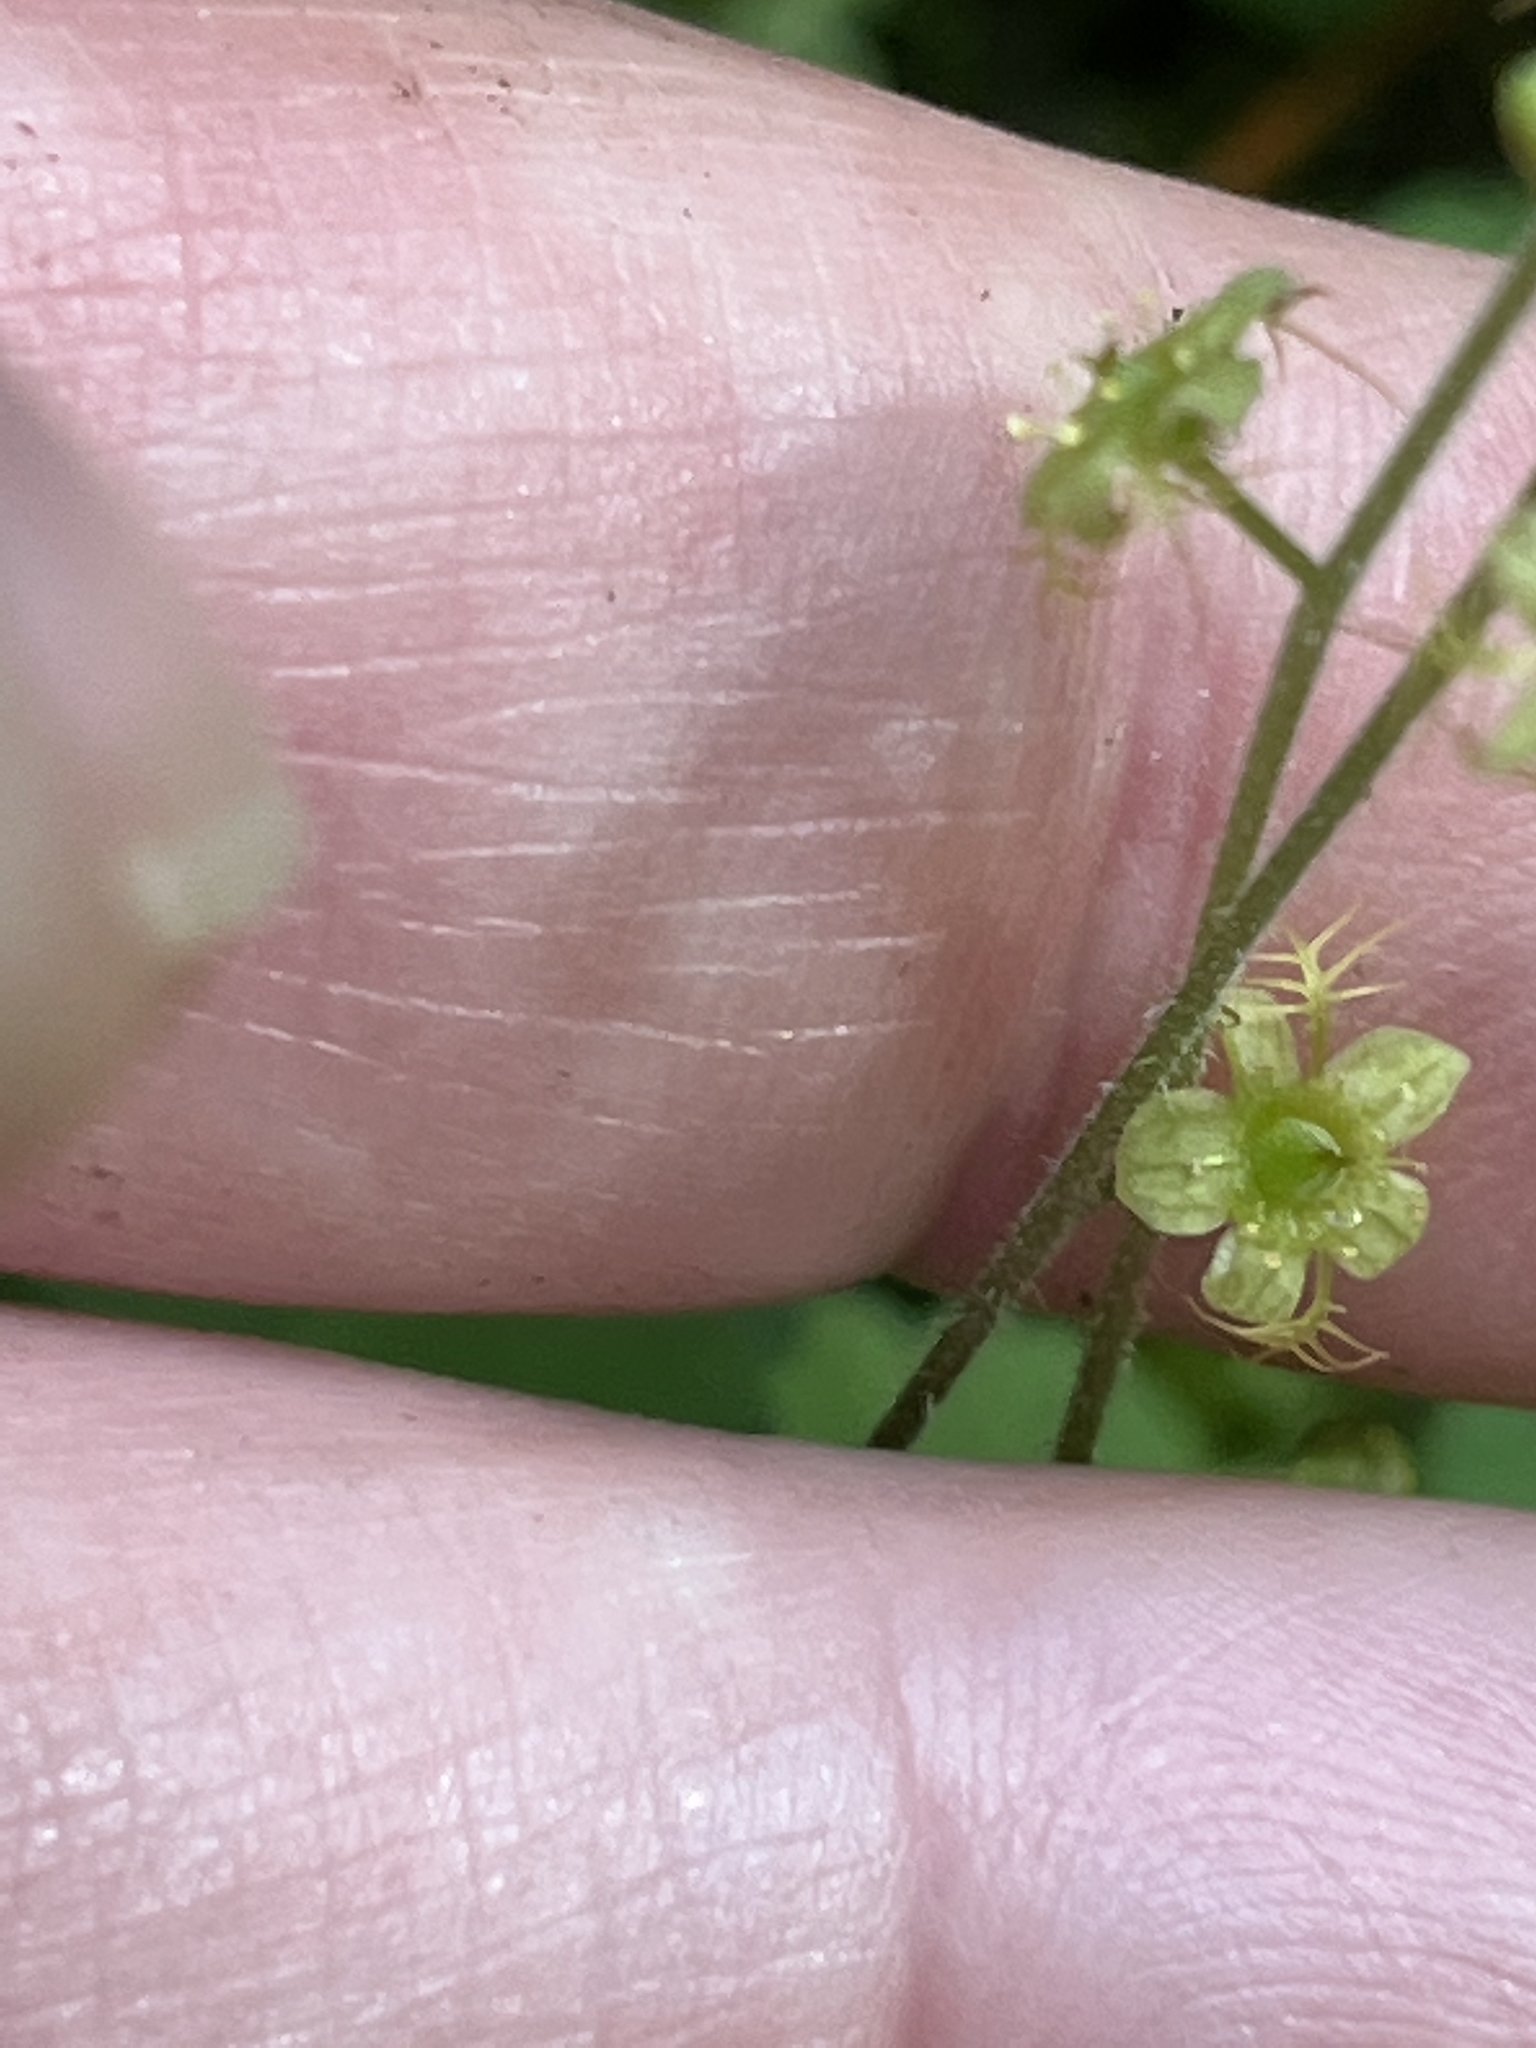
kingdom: Plantae
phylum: Tracheophyta
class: Magnoliopsida
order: Saxifragales
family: Saxifragaceae
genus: Mitella
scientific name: Mitella nuda
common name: Bare-stemmed bishop's-cap
